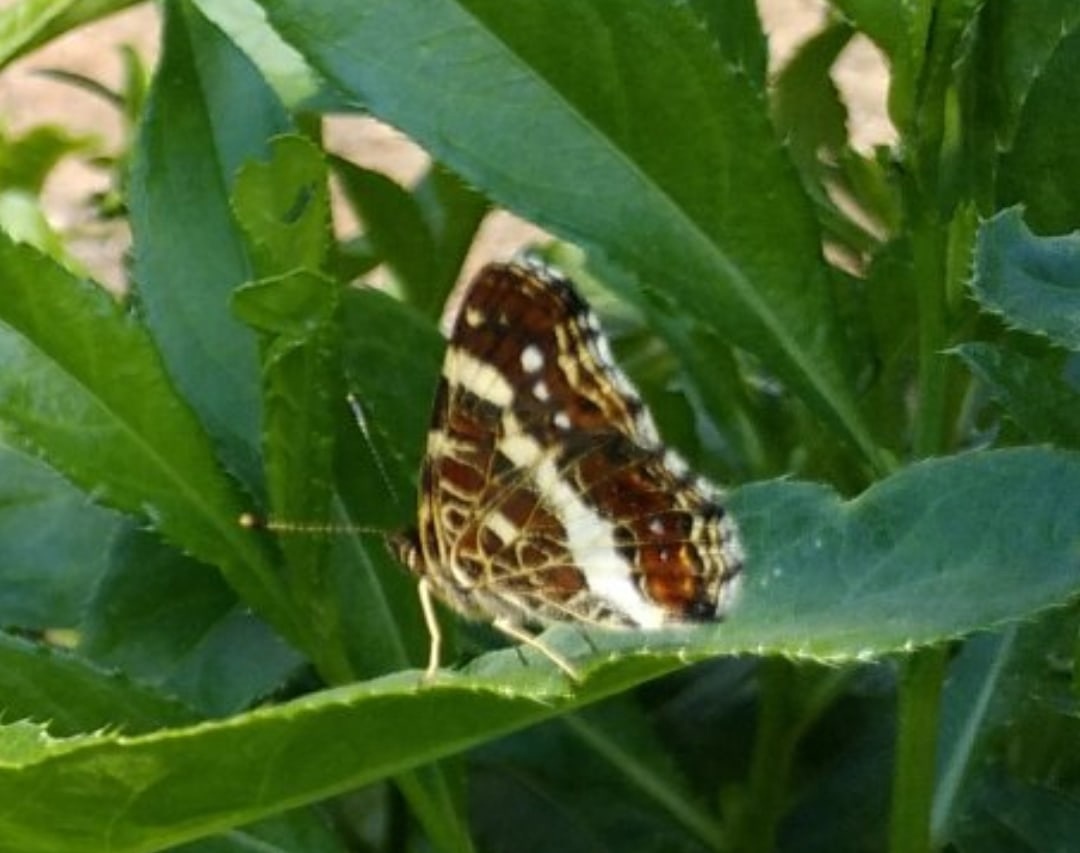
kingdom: Animalia
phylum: Arthropoda
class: Insecta
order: Lepidoptera
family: Nymphalidae
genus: Araschnia
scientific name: Araschnia levana
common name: Map butterfly
